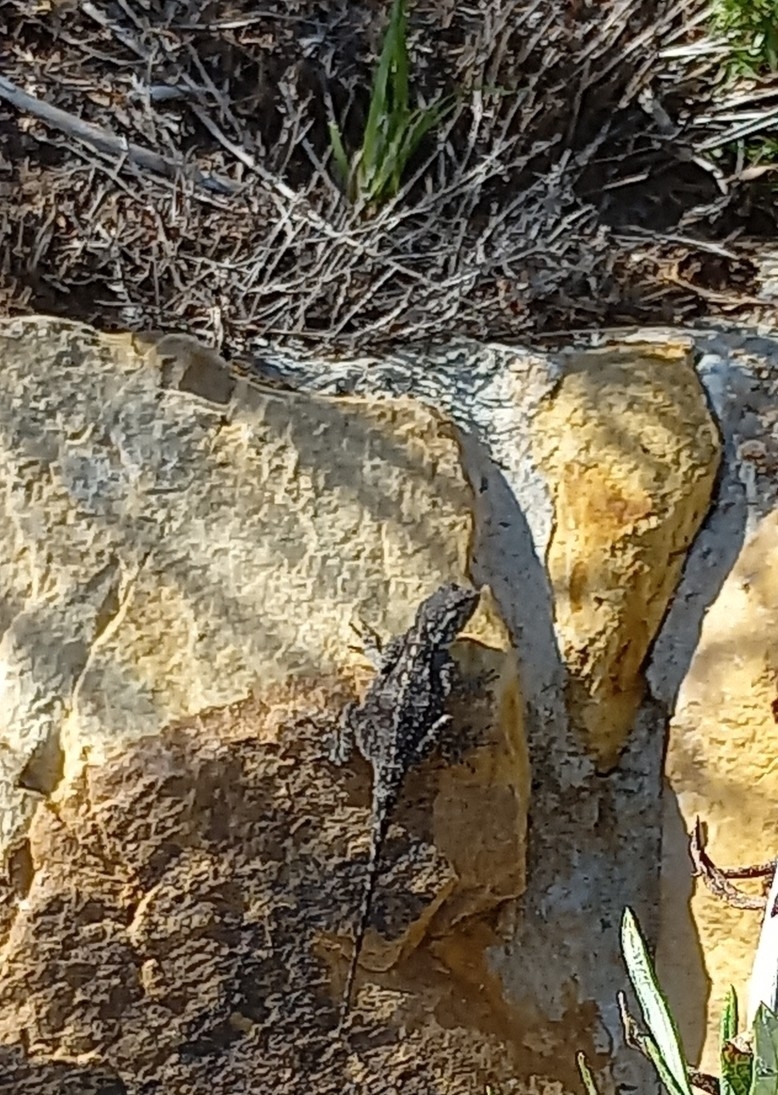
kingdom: Animalia
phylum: Chordata
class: Squamata
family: Agamidae
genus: Agama
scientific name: Agama atra
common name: Southern african rock agama
